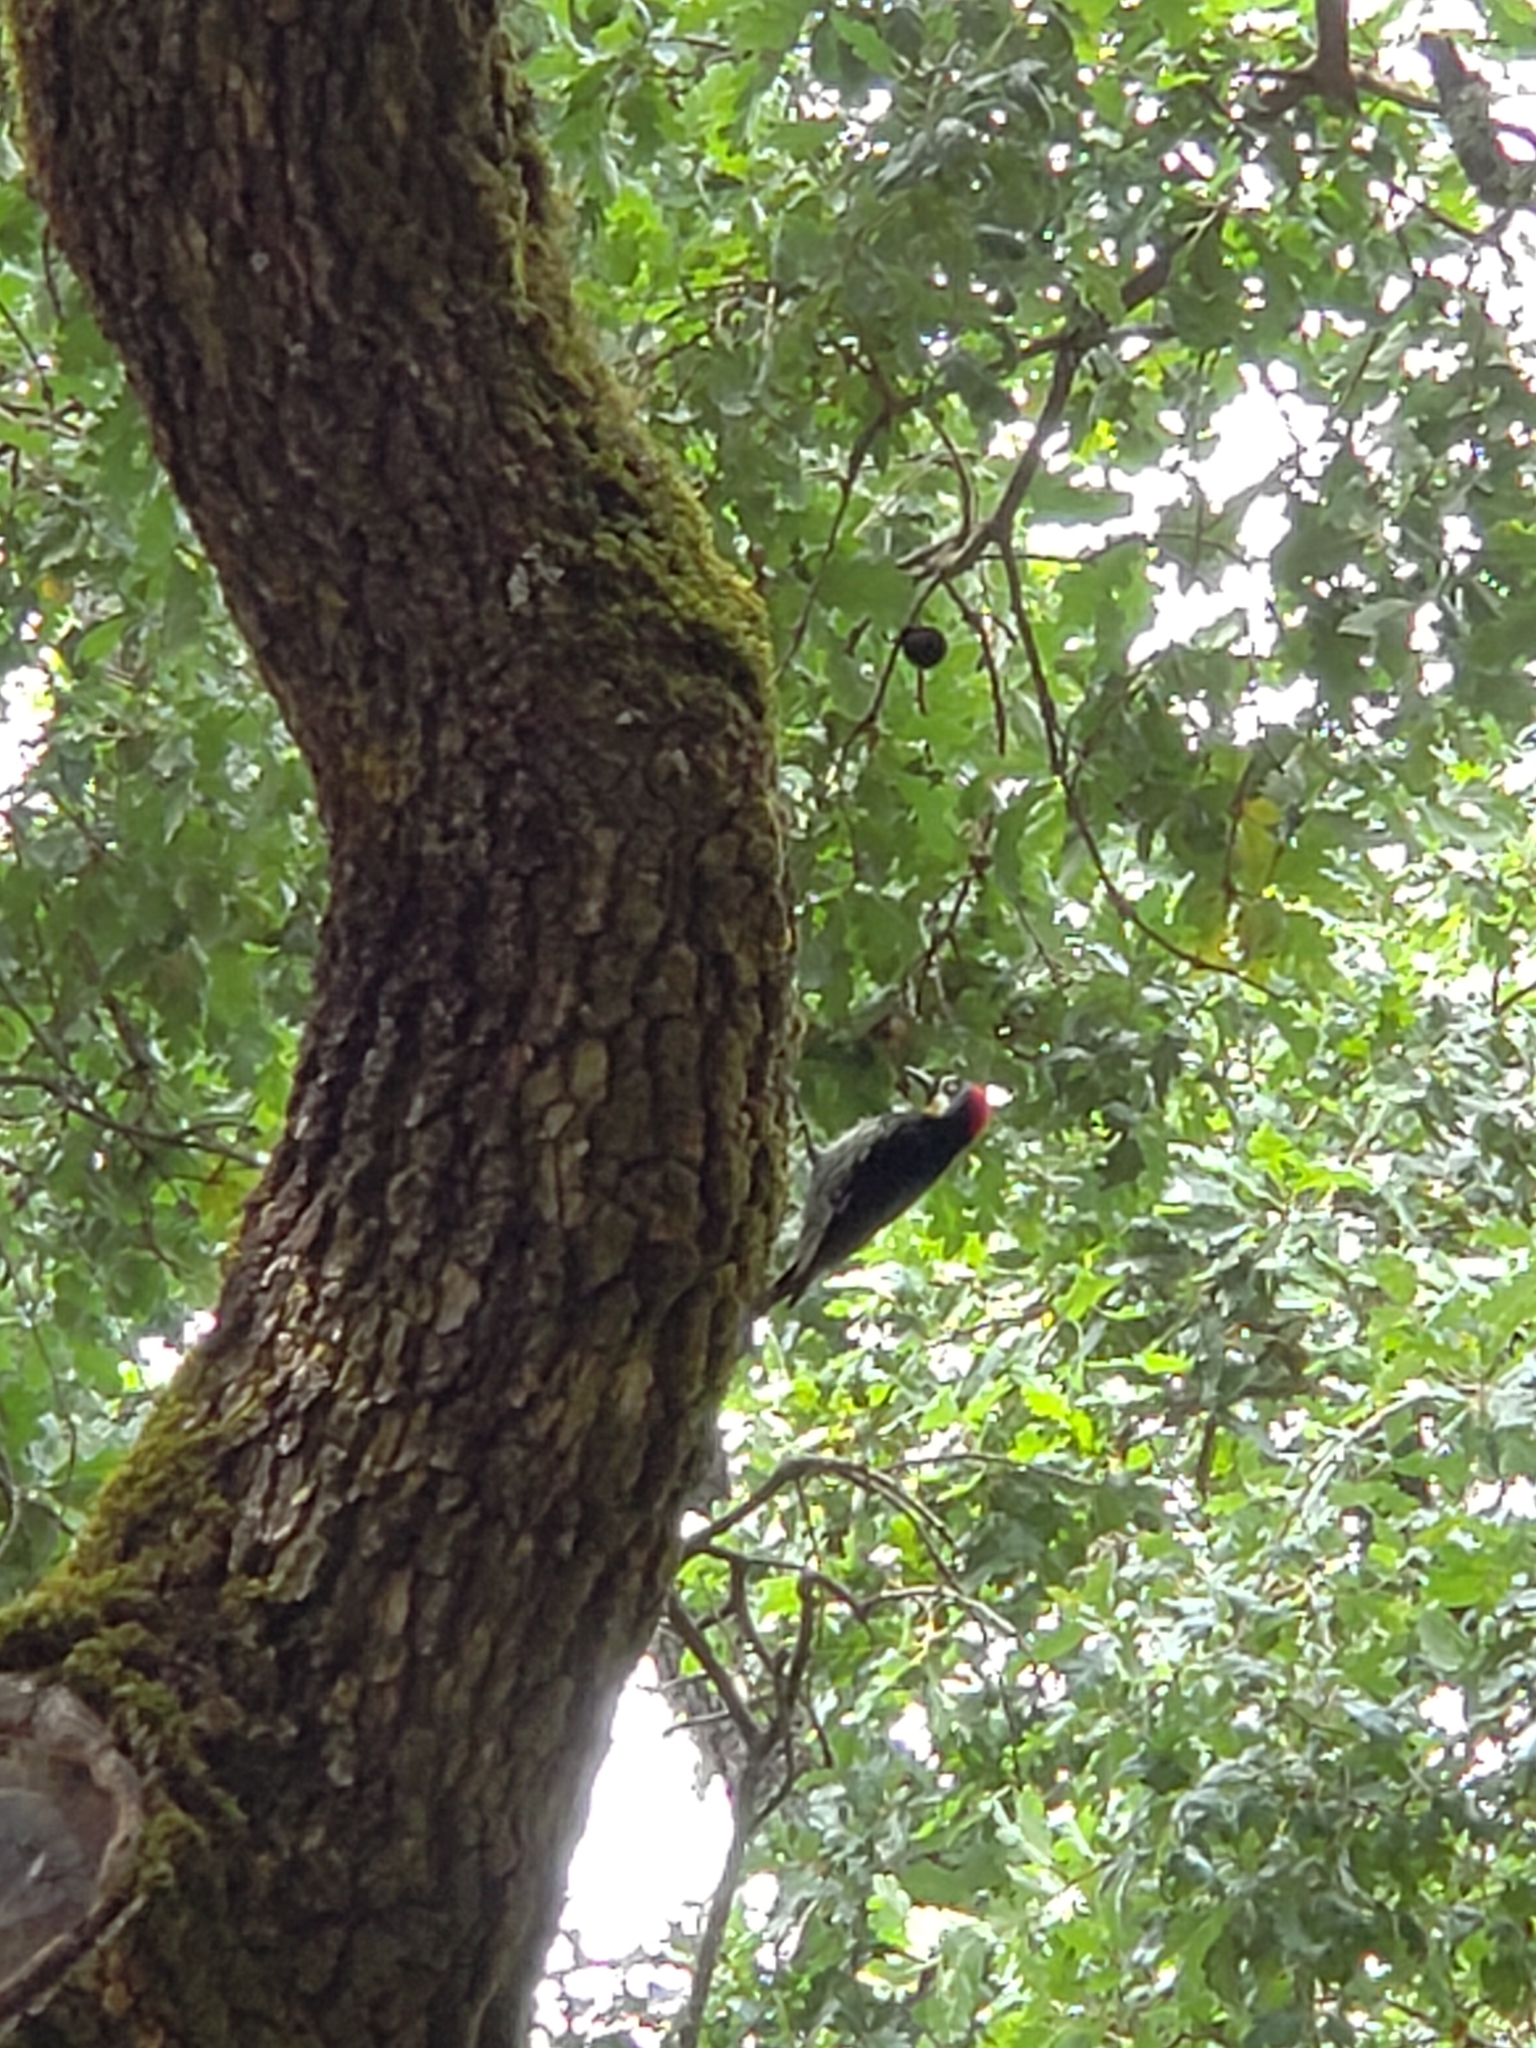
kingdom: Animalia
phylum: Chordata
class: Aves
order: Piciformes
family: Picidae
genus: Melanerpes
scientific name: Melanerpes formicivorus
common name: Acorn woodpecker
